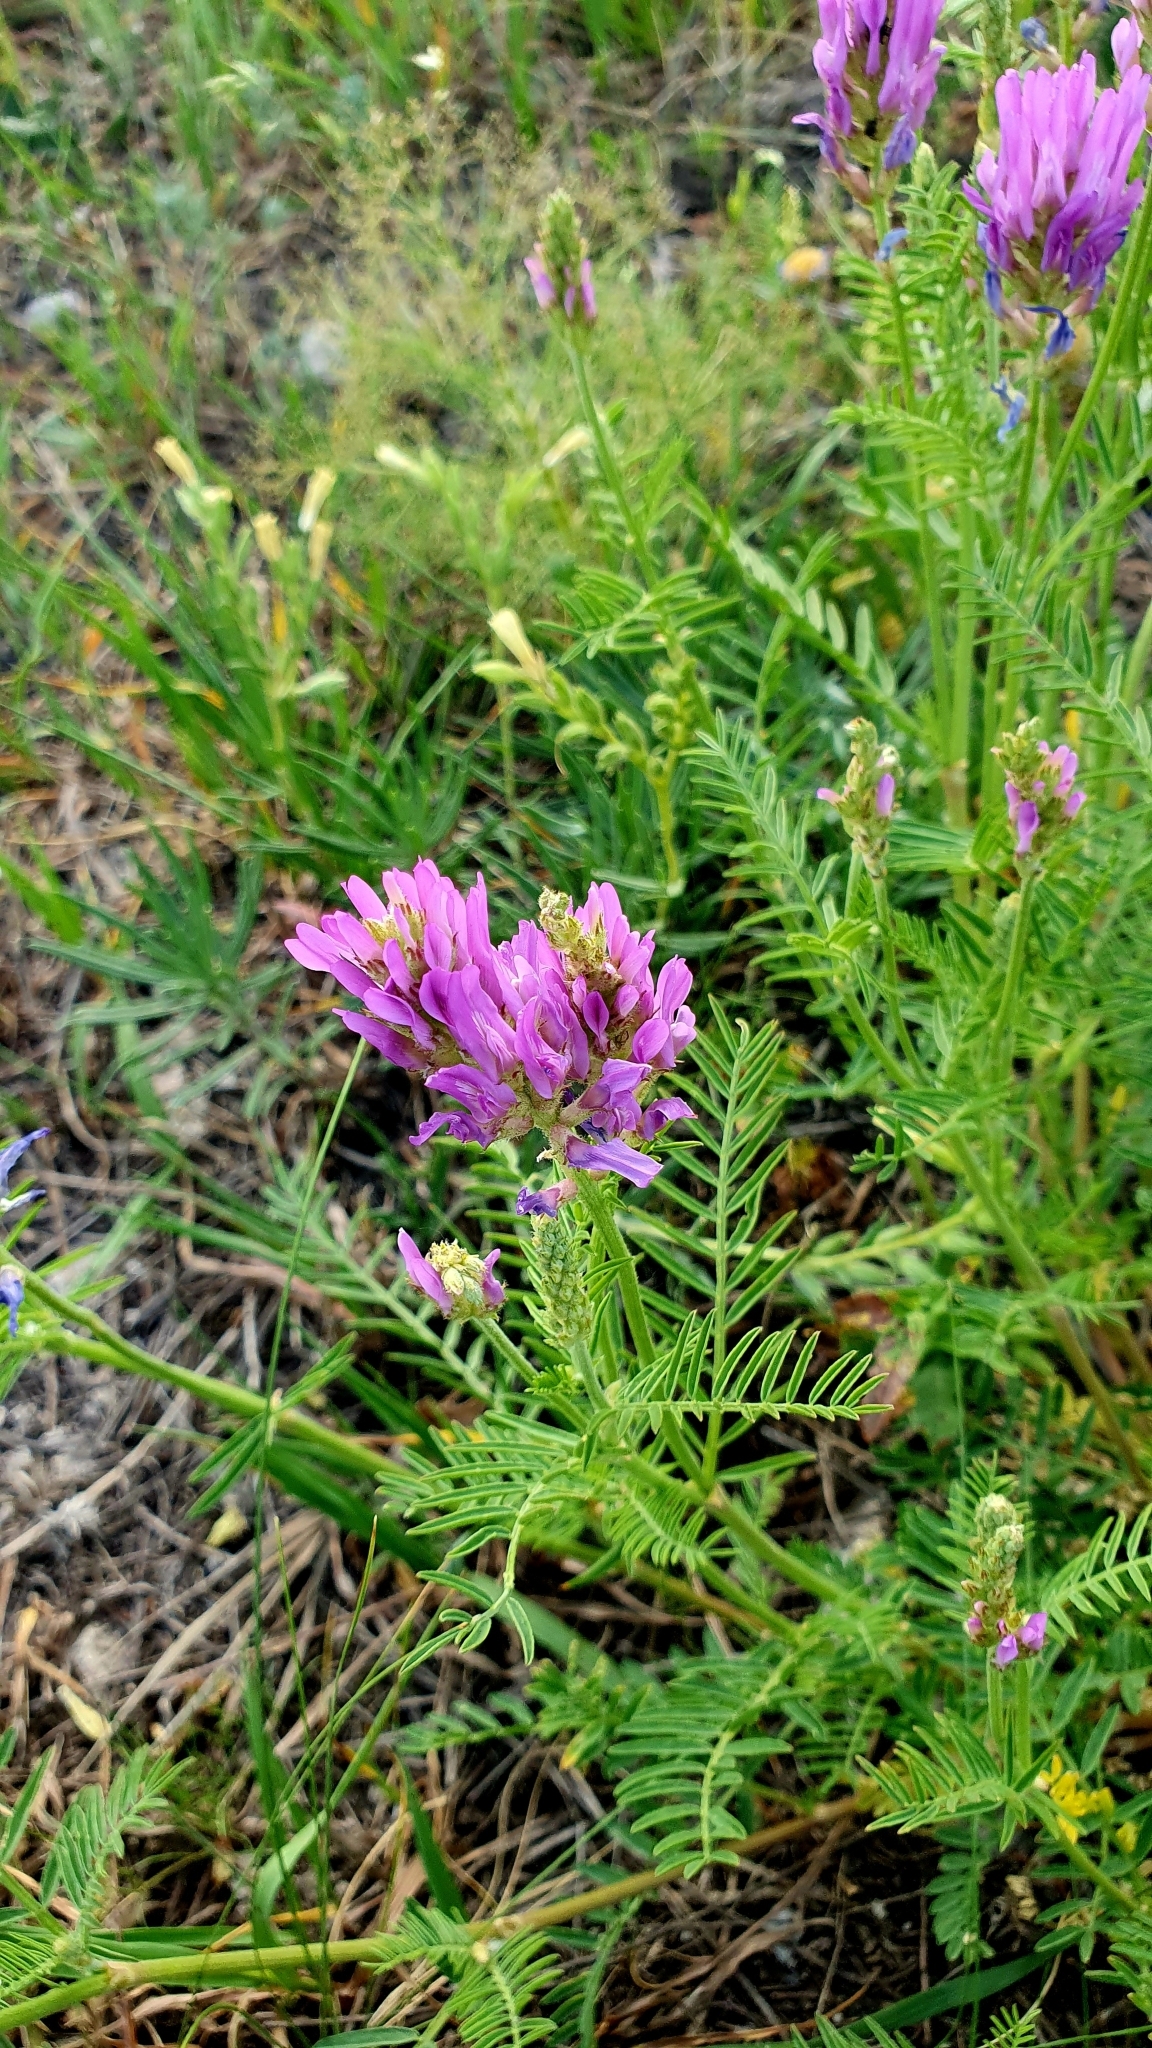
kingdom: Plantae
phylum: Tracheophyta
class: Magnoliopsida
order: Fabales
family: Fabaceae
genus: Astragalus
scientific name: Astragalus onobrychis
